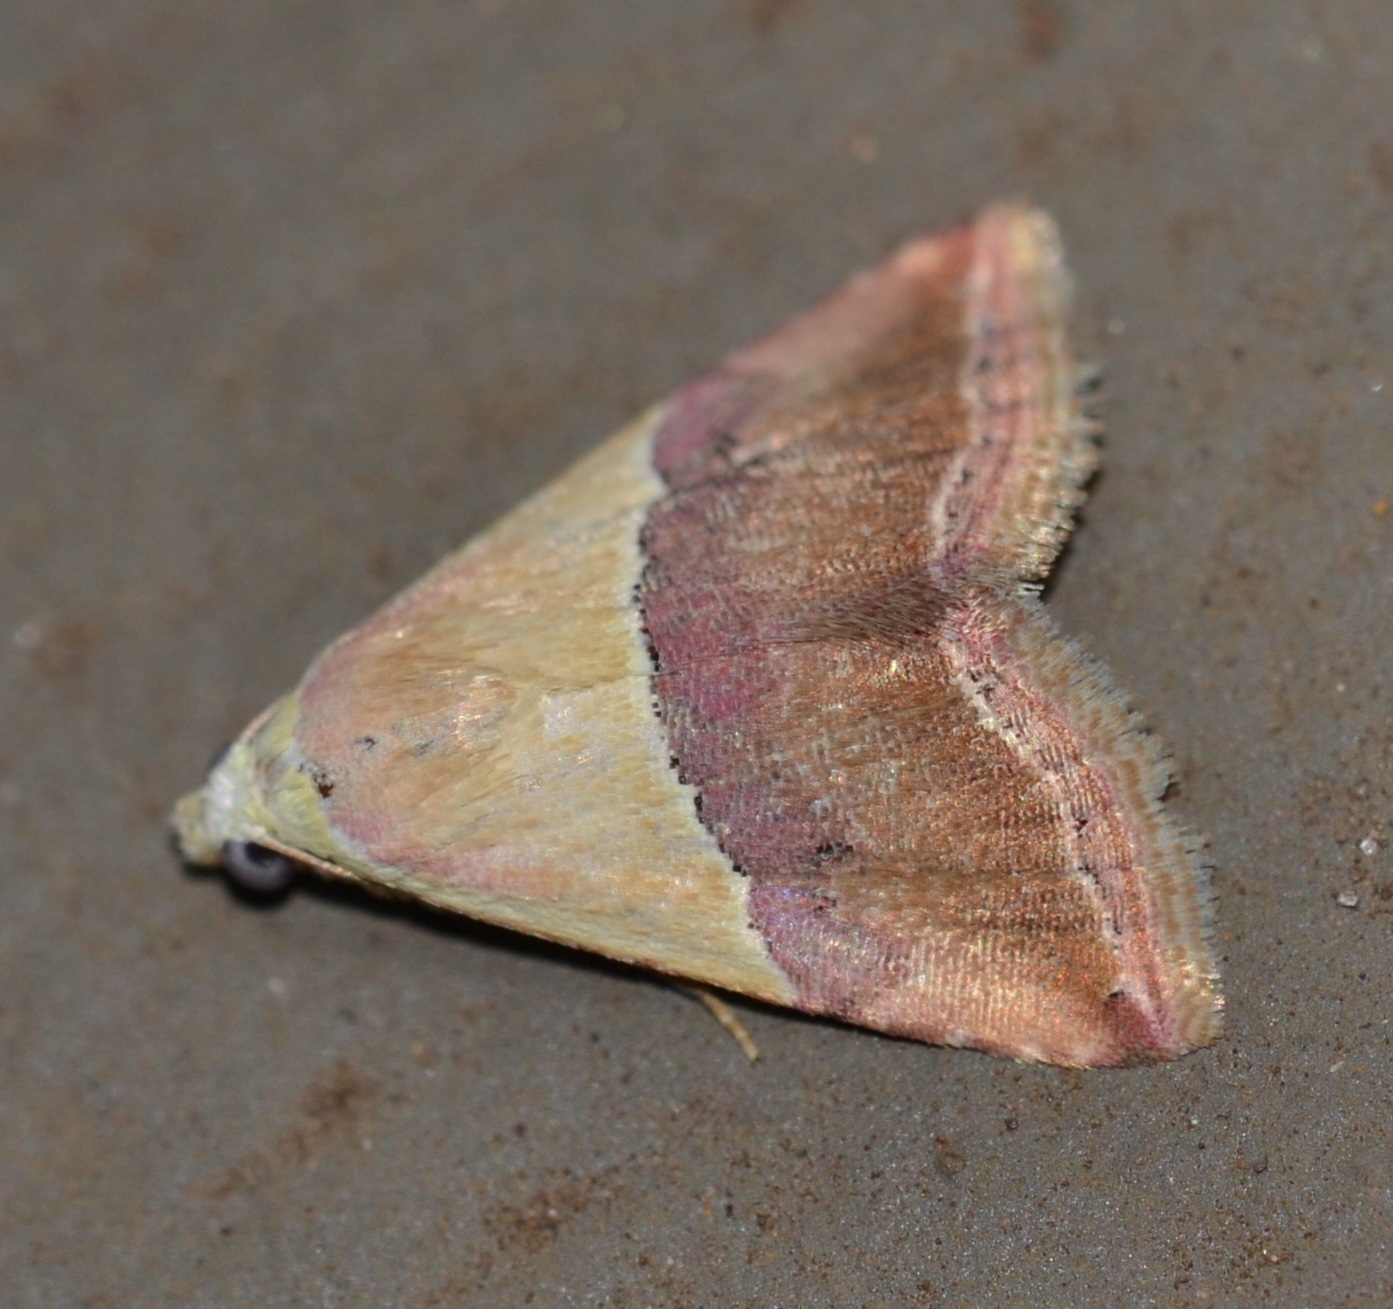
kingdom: Animalia
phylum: Arthropoda
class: Insecta
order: Lepidoptera
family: Noctuidae
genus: Eublemma
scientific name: Eublemma accedens
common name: Moth
